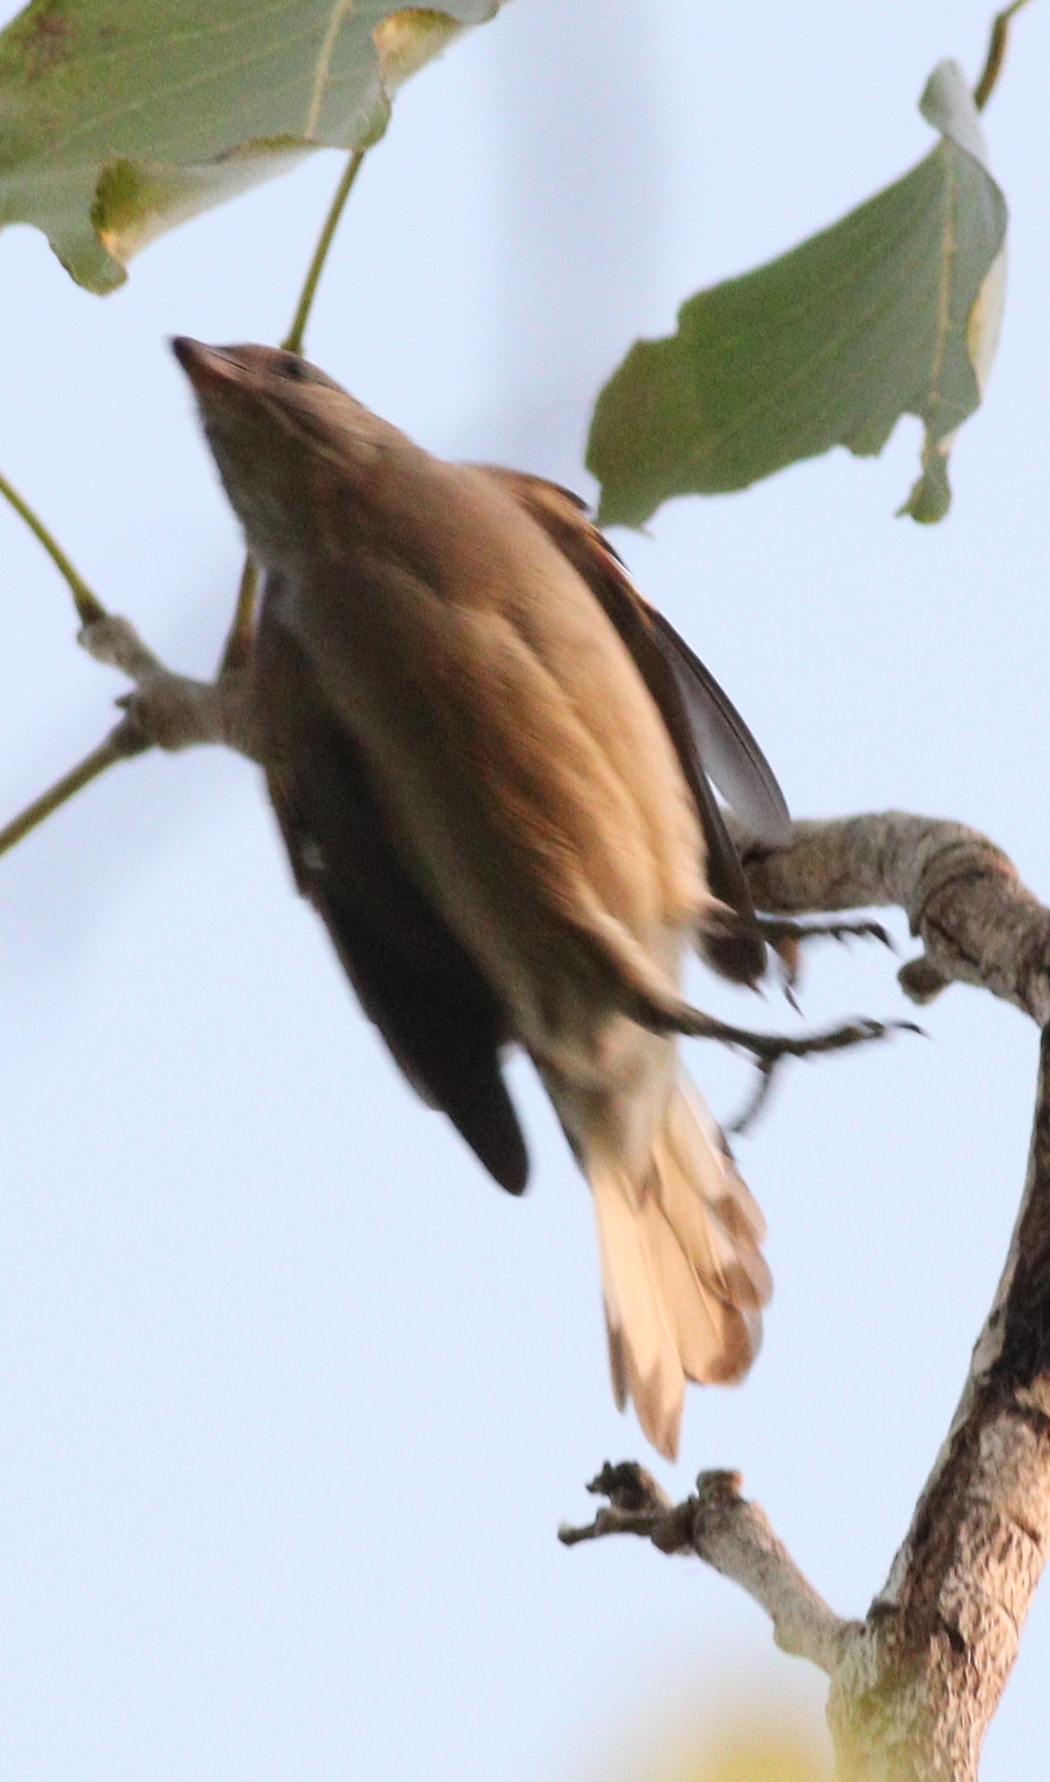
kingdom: Animalia
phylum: Chordata
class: Aves
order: Piciformes
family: Indicatoridae
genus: Indicator
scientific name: Indicator minor
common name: Lesser honeyguide
